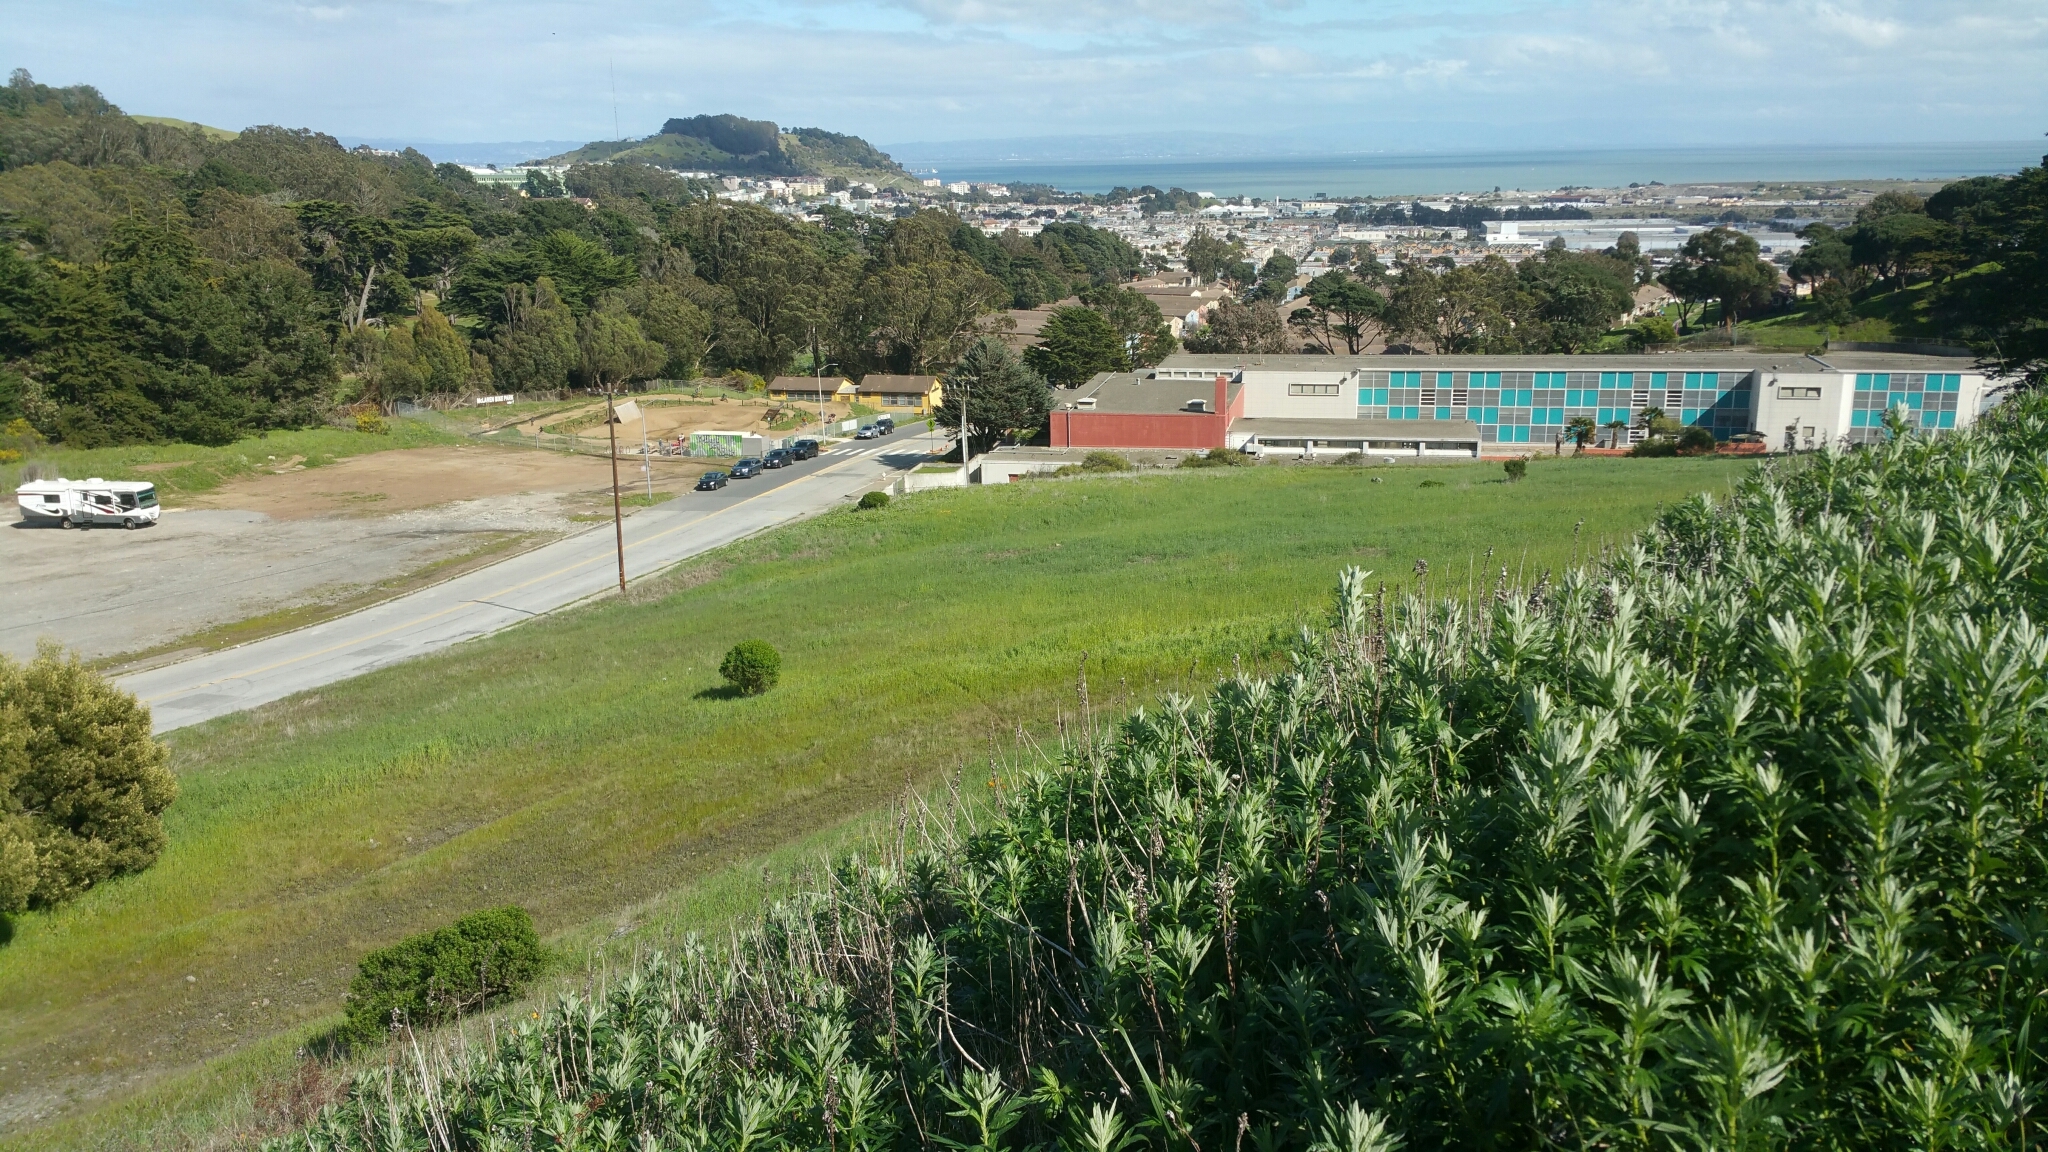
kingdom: Plantae
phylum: Tracheophyta
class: Magnoliopsida
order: Asterales
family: Asteraceae
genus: Artemisia
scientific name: Artemisia douglasiana
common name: Northwest mugwort
